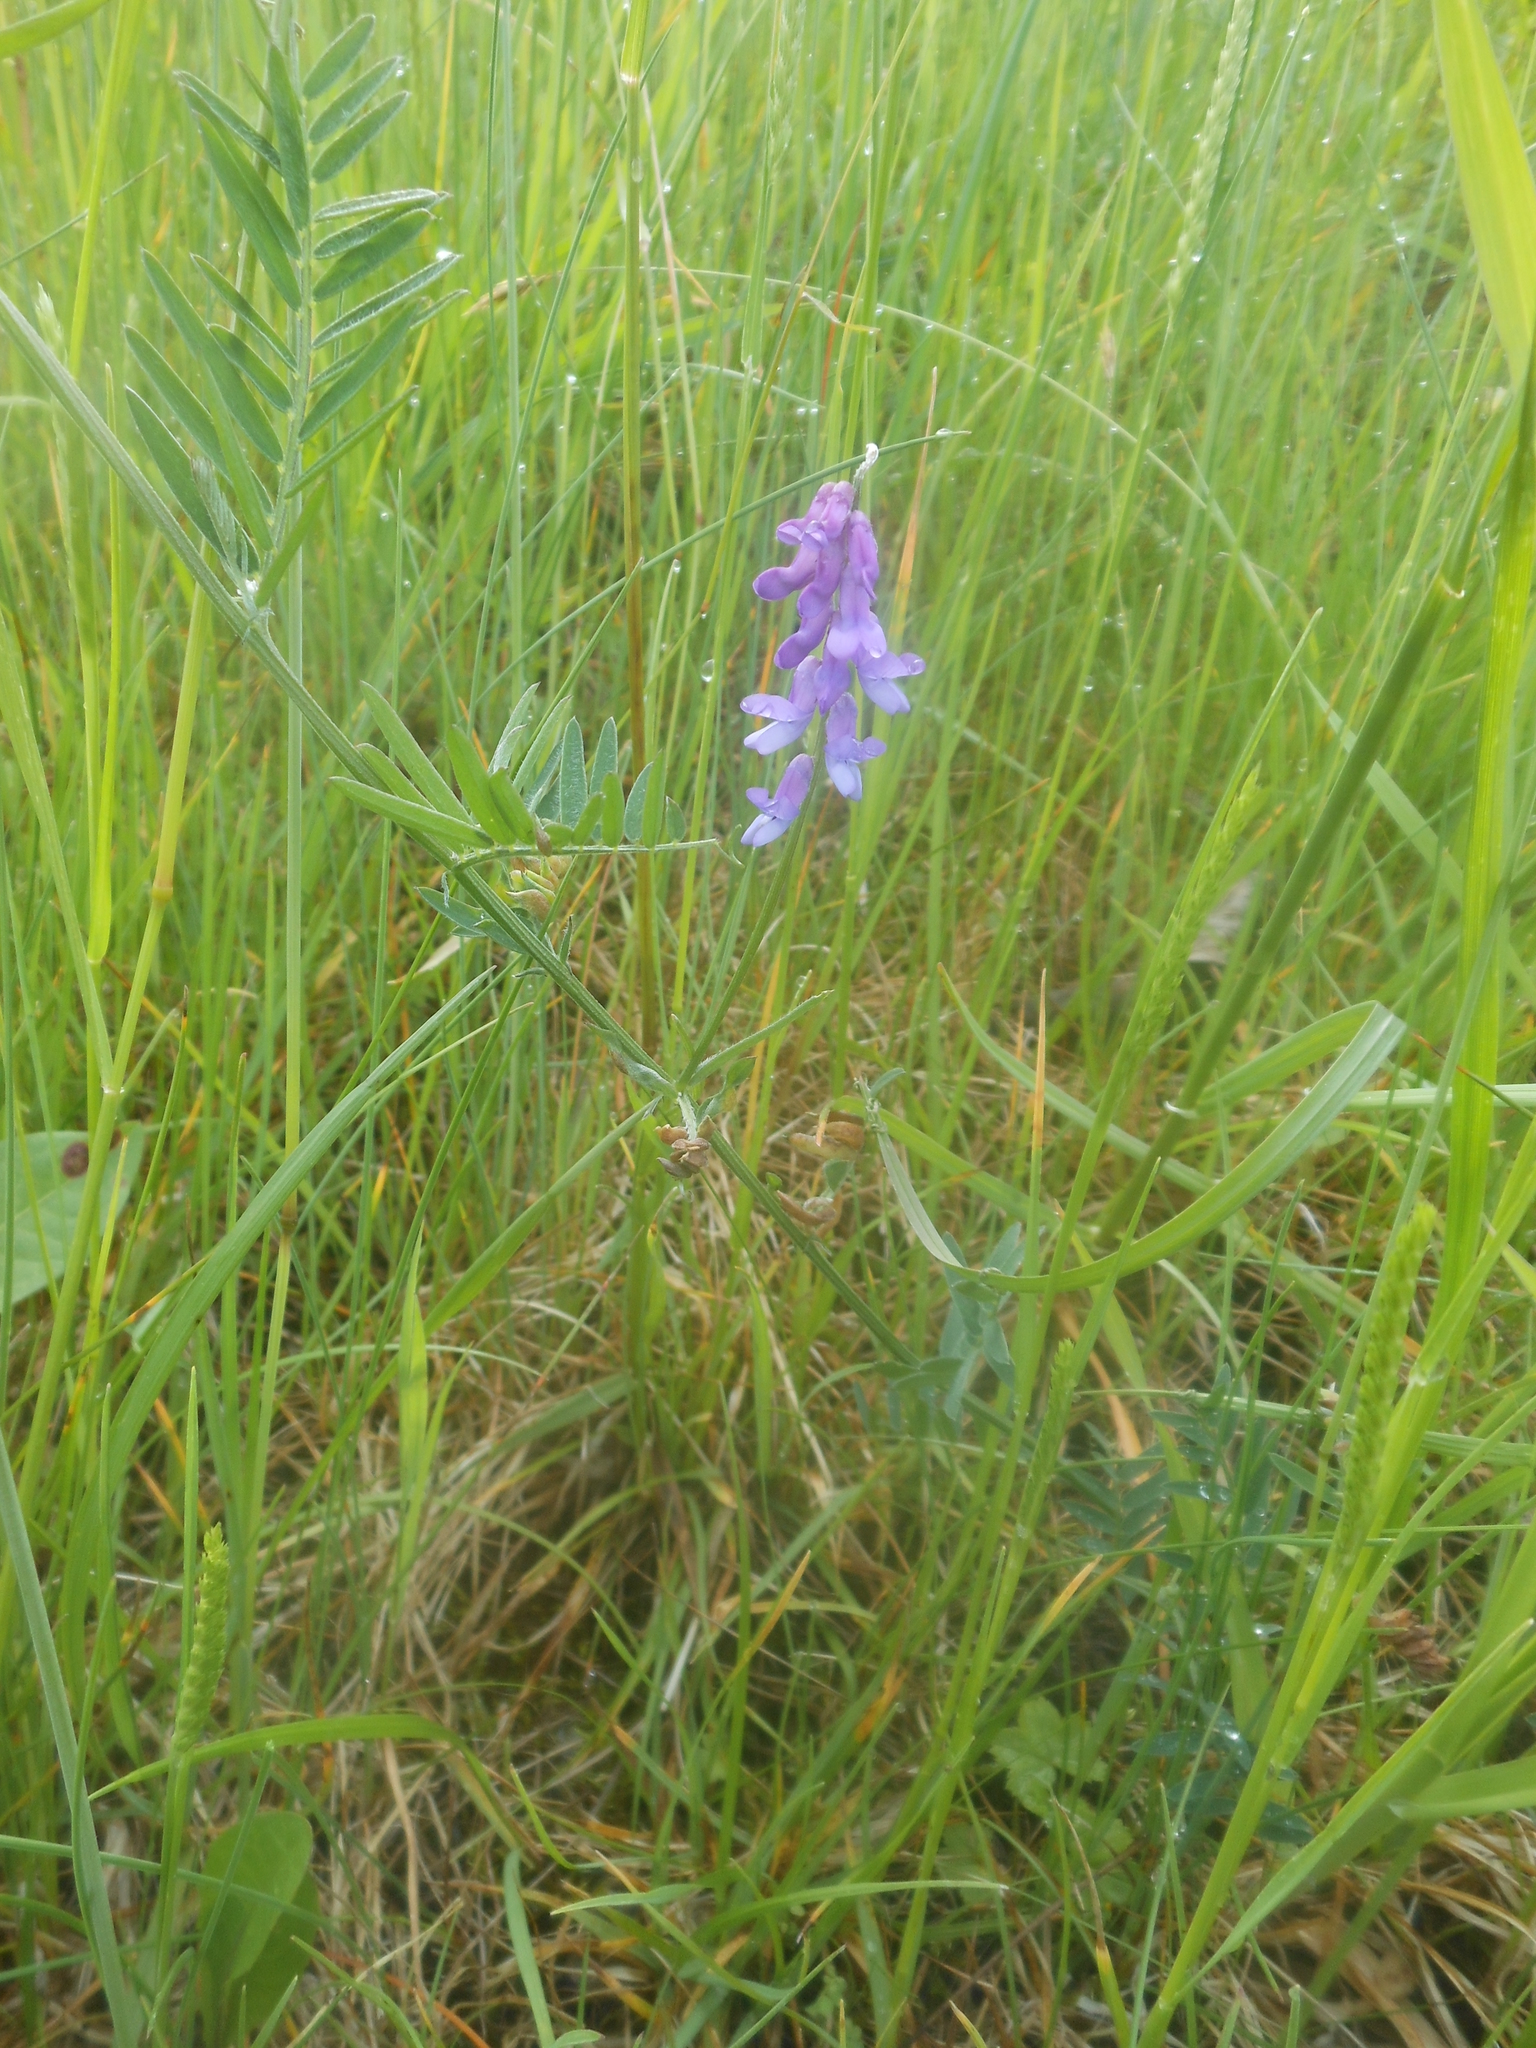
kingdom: Plantae
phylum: Tracheophyta
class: Magnoliopsida
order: Fabales
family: Fabaceae
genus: Vicia
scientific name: Vicia cracca
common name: Bird vetch
